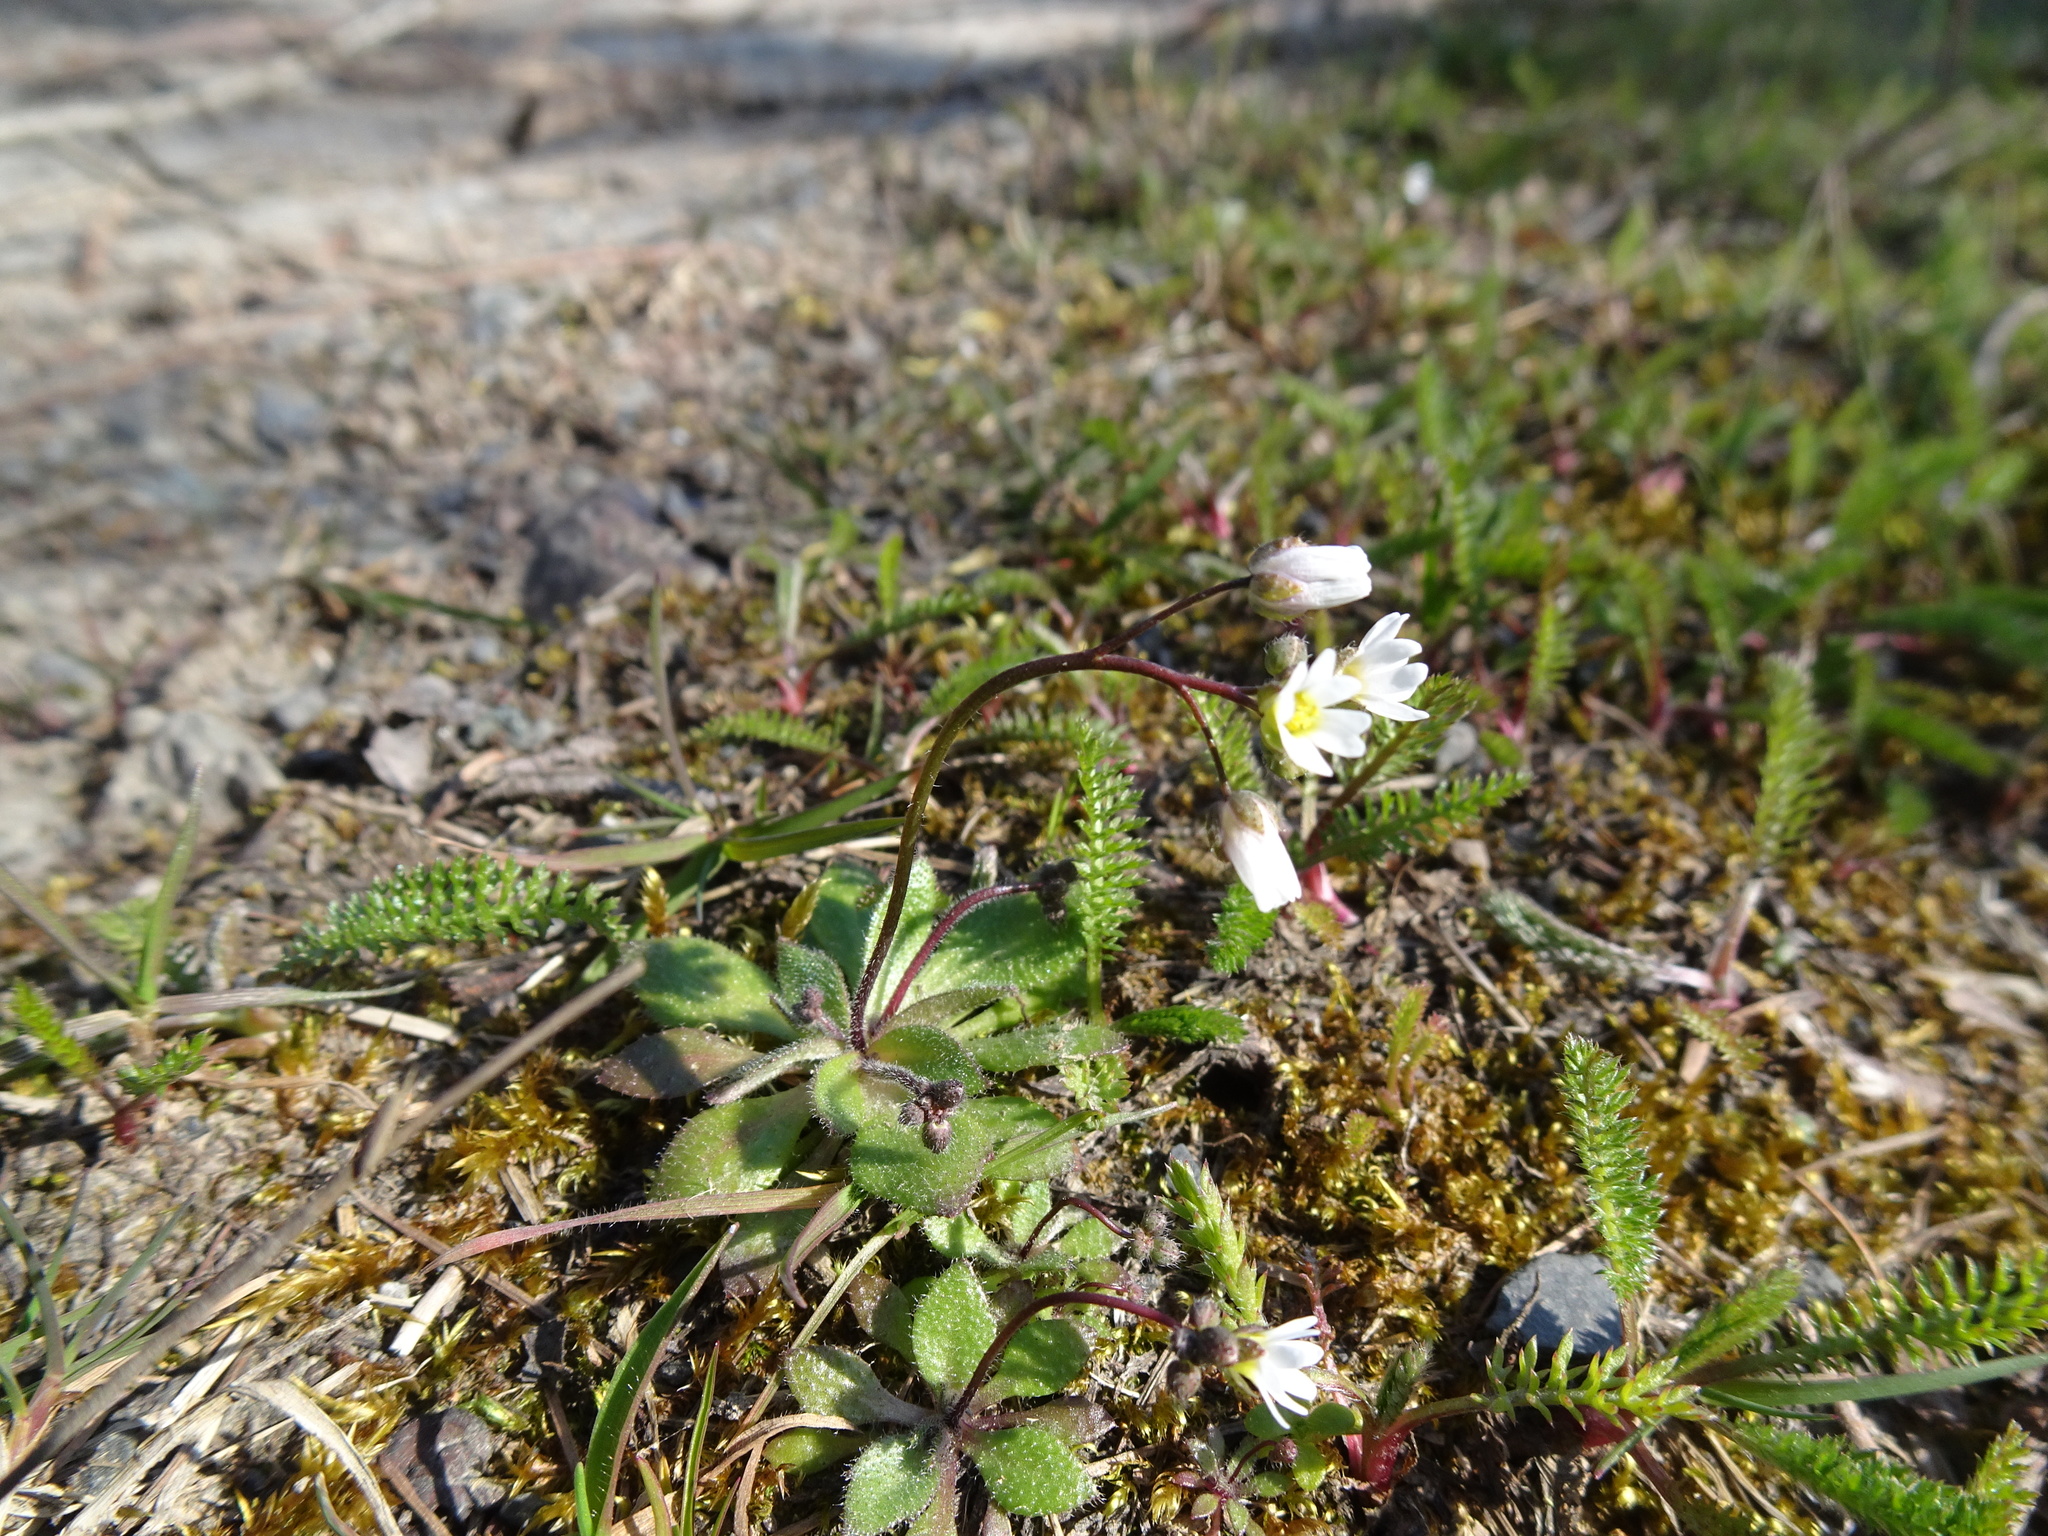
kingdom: Plantae
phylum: Tracheophyta
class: Magnoliopsida
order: Brassicales
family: Brassicaceae
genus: Draba
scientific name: Draba verna
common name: Spring draba
